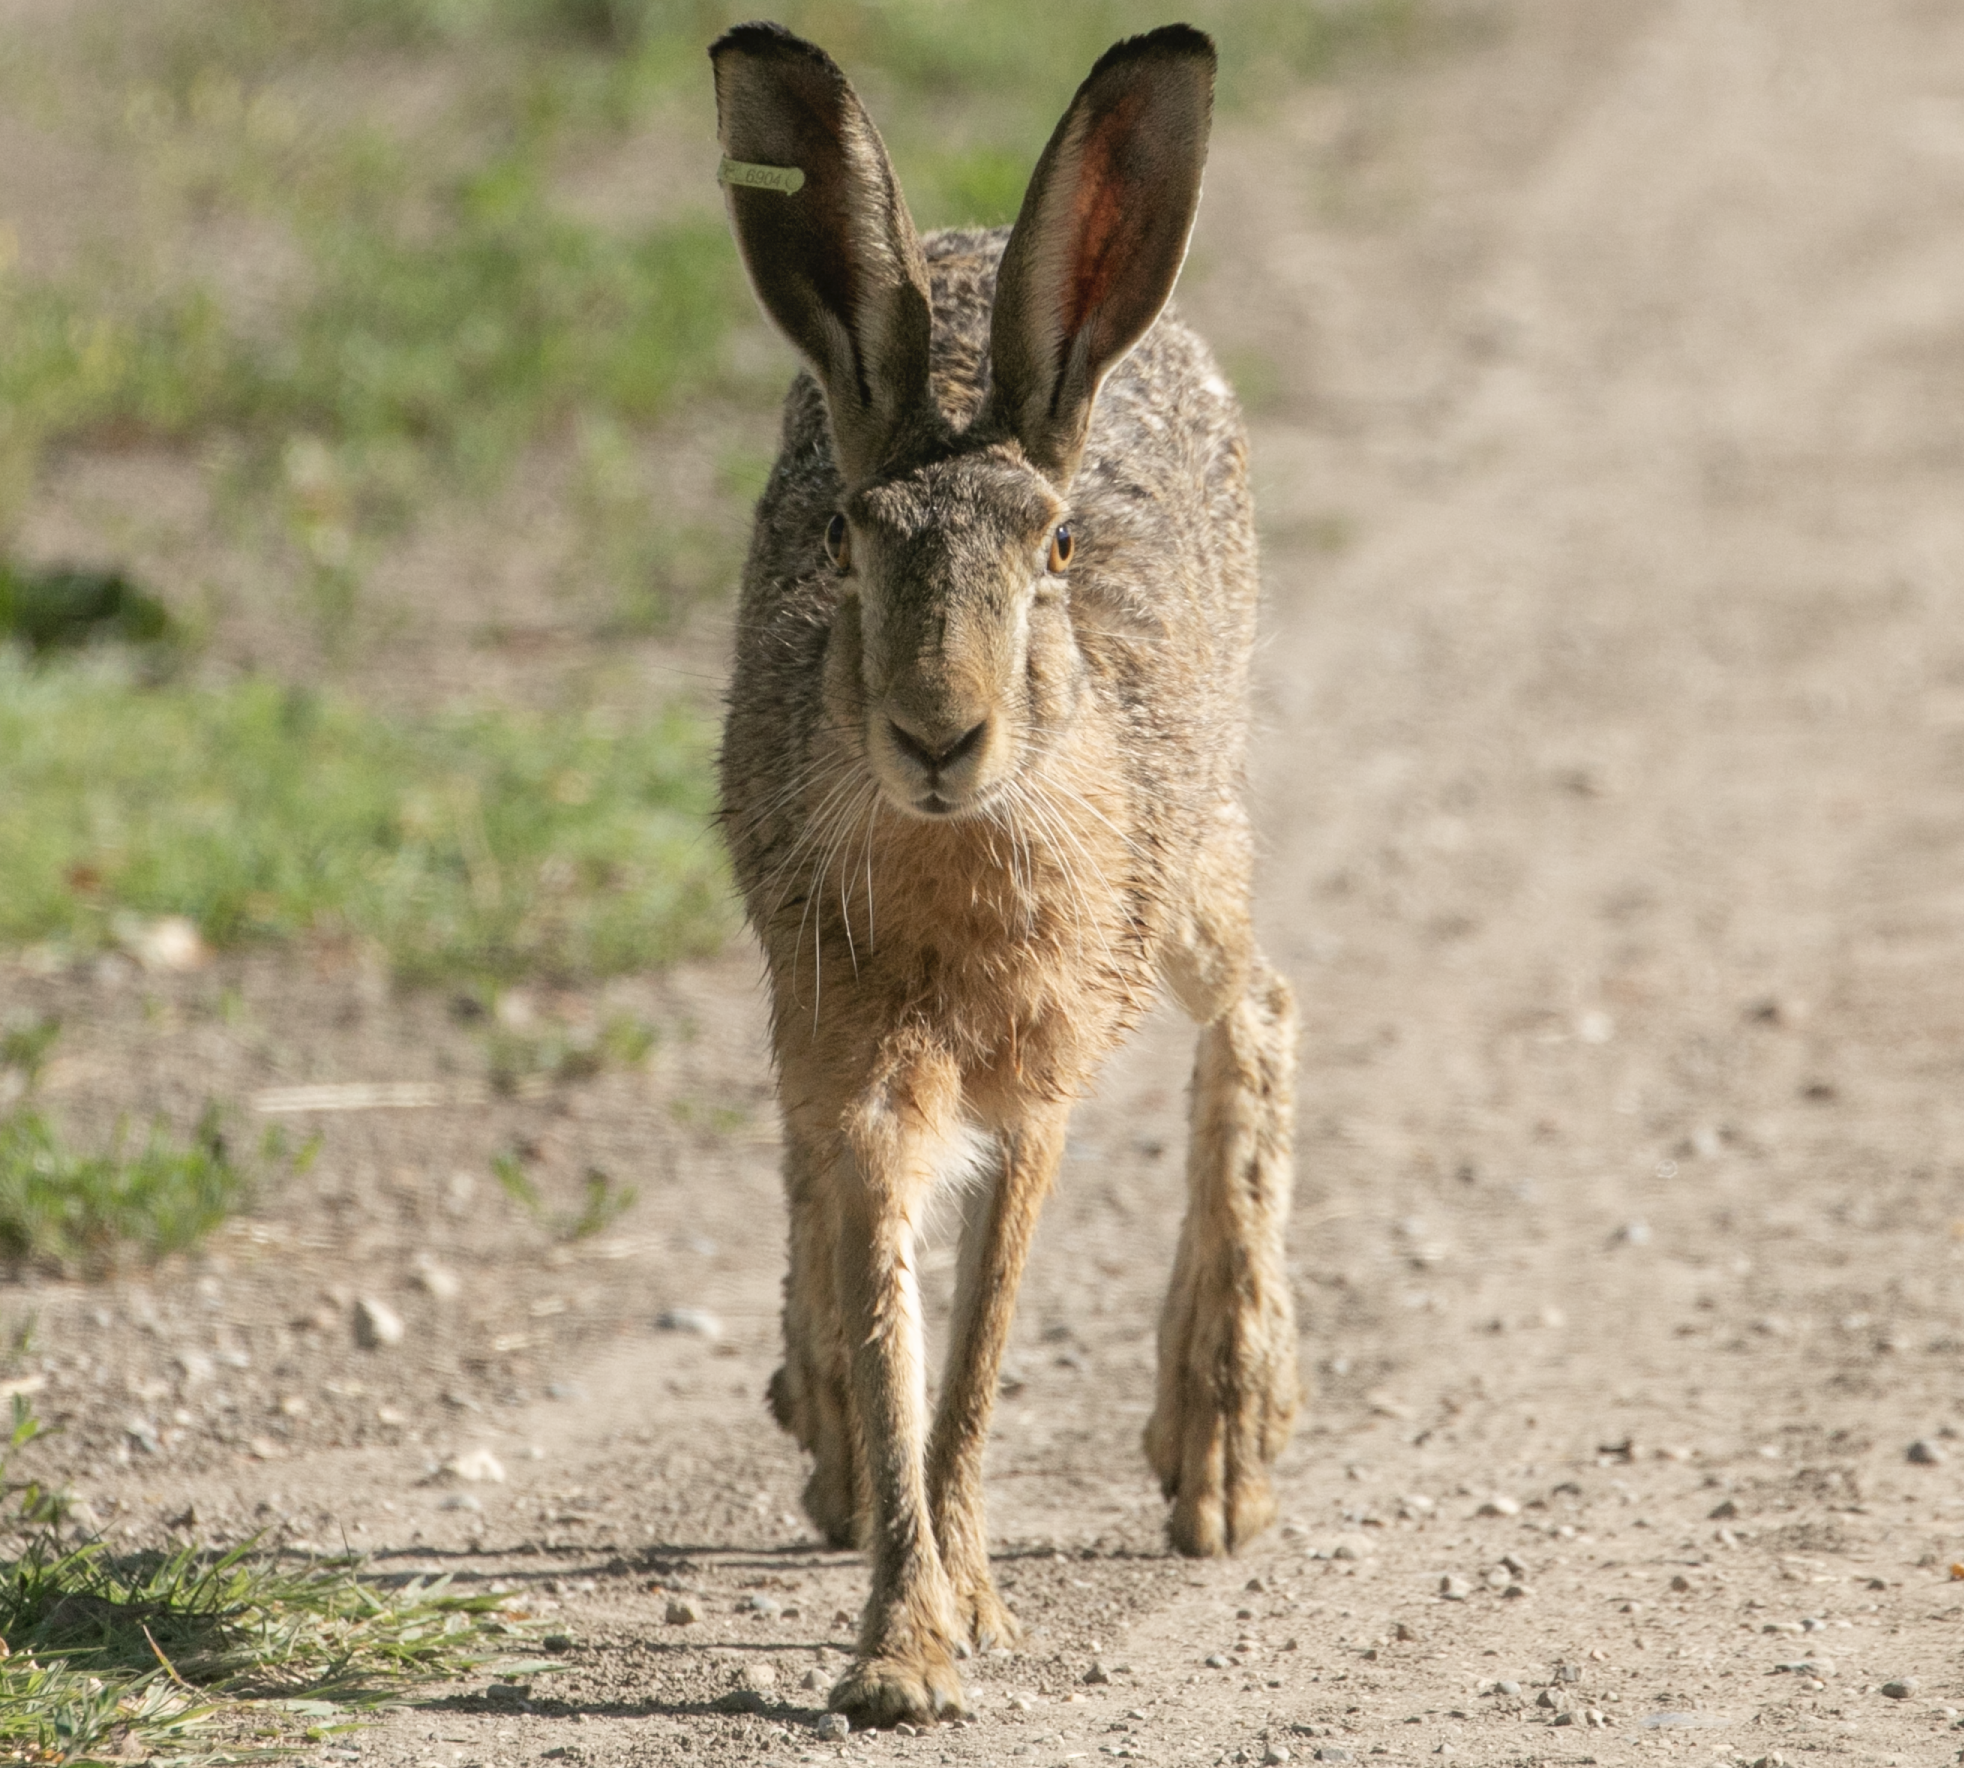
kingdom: Animalia
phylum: Chordata
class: Mammalia
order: Lagomorpha
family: Leporidae
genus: Lepus
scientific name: Lepus europaeus
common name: European hare
